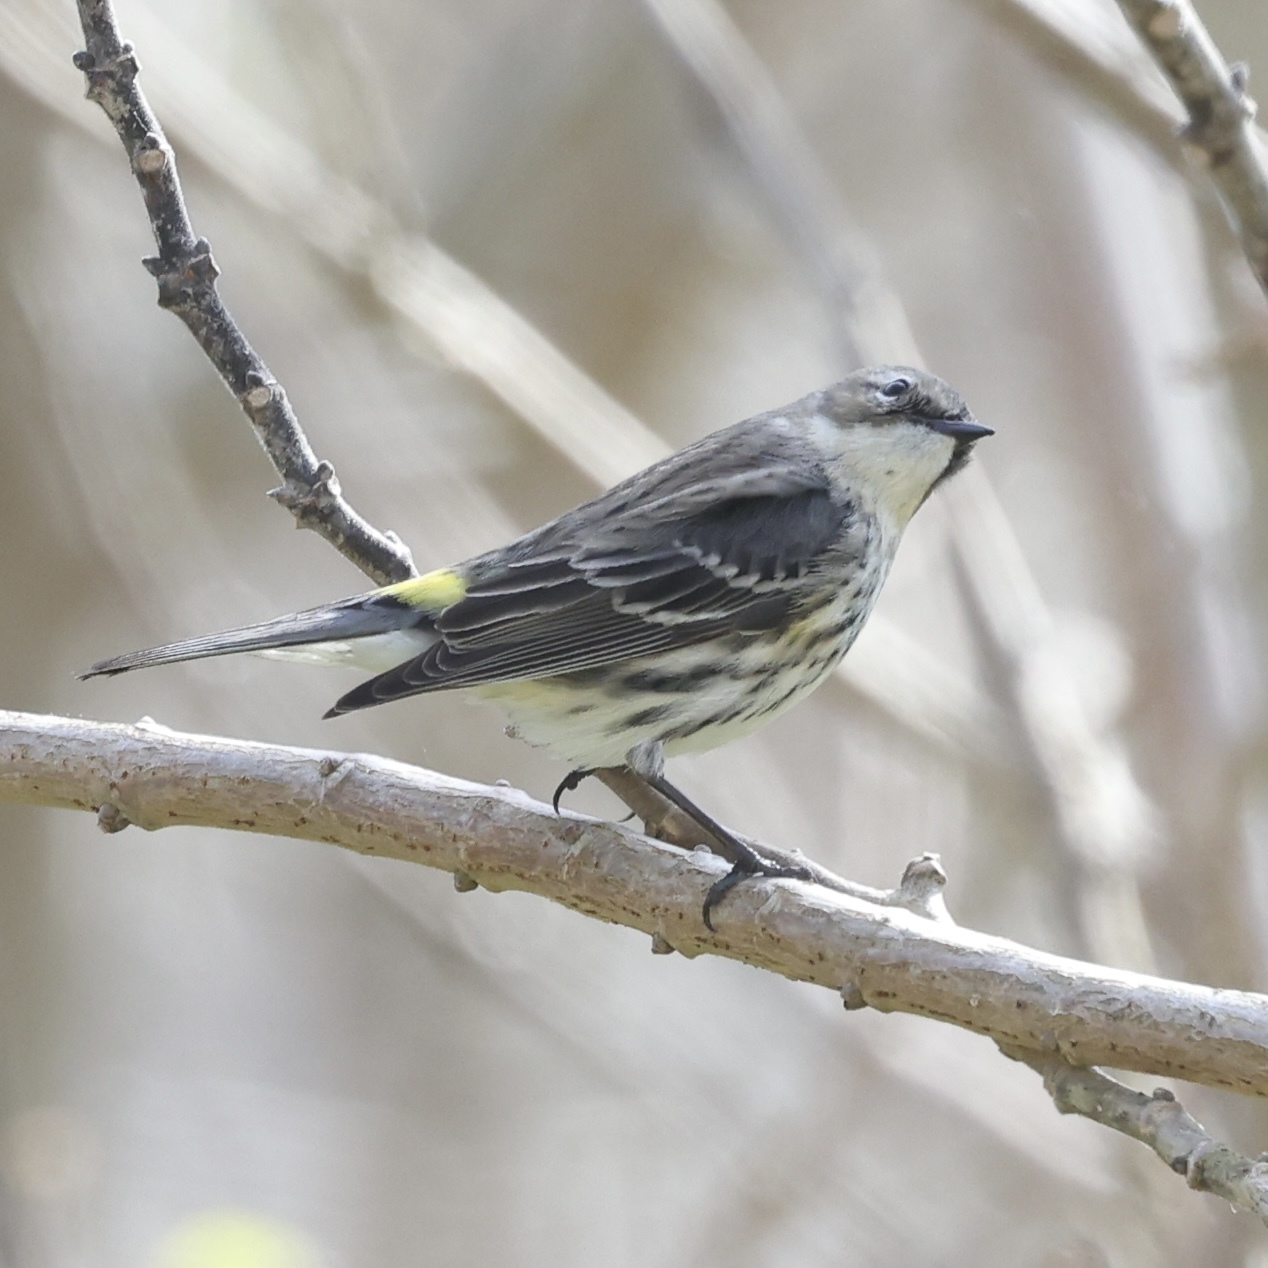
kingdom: Animalia
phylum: Chordata
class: Aves
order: Passeriformes
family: Parulidae
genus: Setophaga
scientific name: Setophaga coronata
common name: Myrtle warbler
